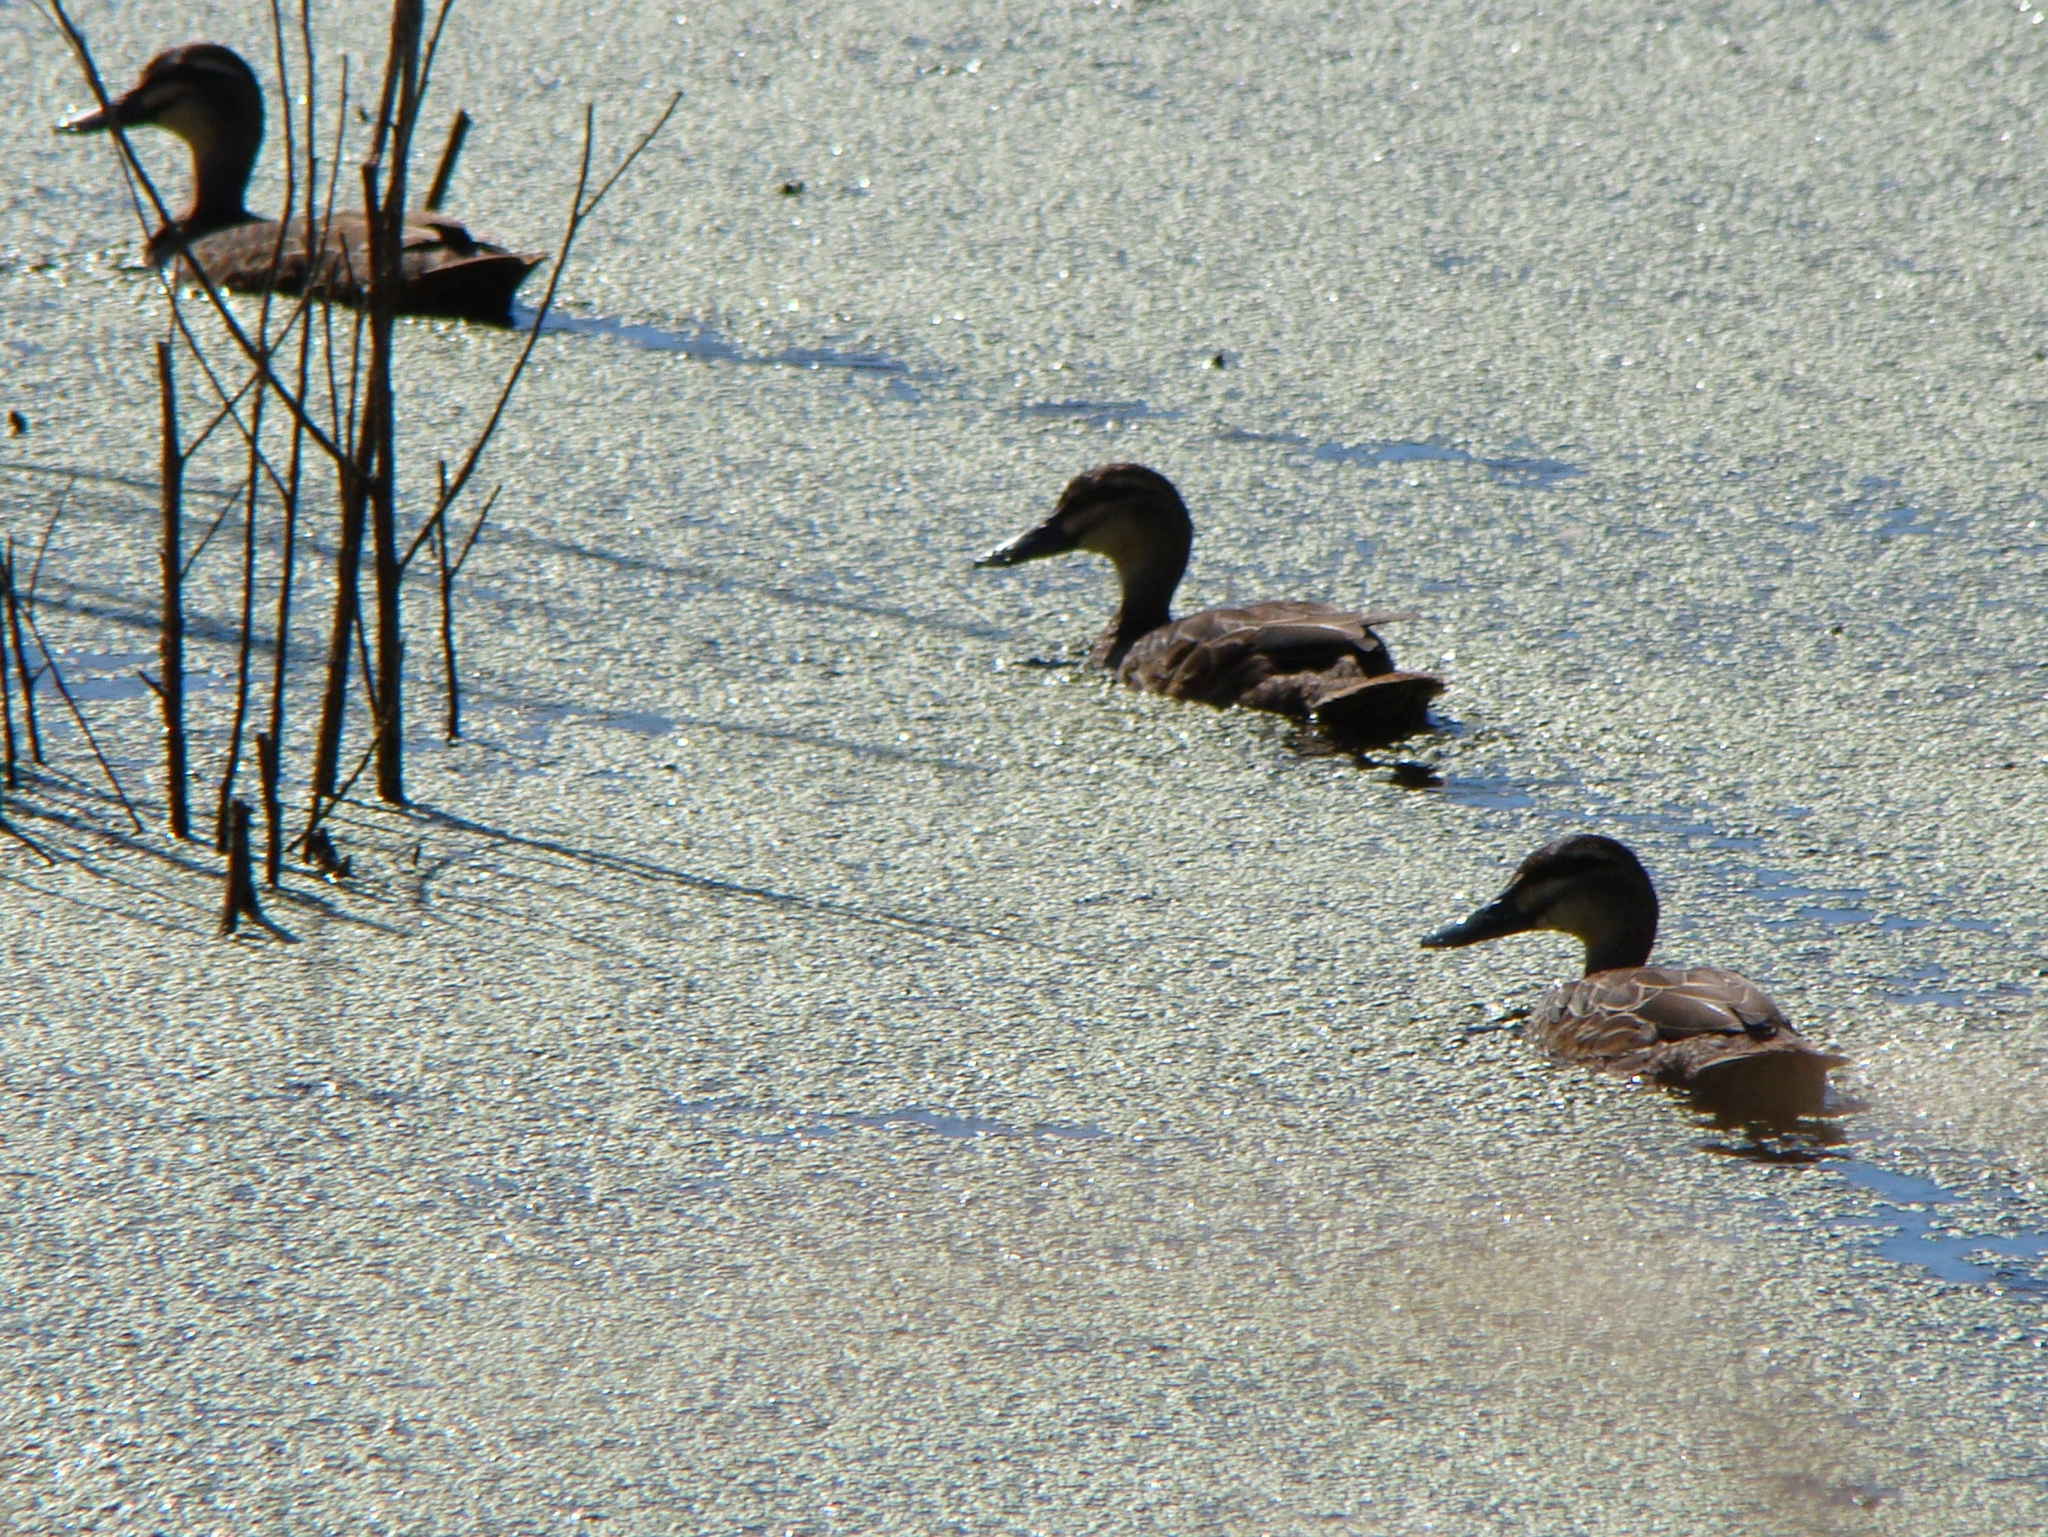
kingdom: Animalia
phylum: Chordata
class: Aves
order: Anseriformes
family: Anatidae
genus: Anas
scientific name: Anas
